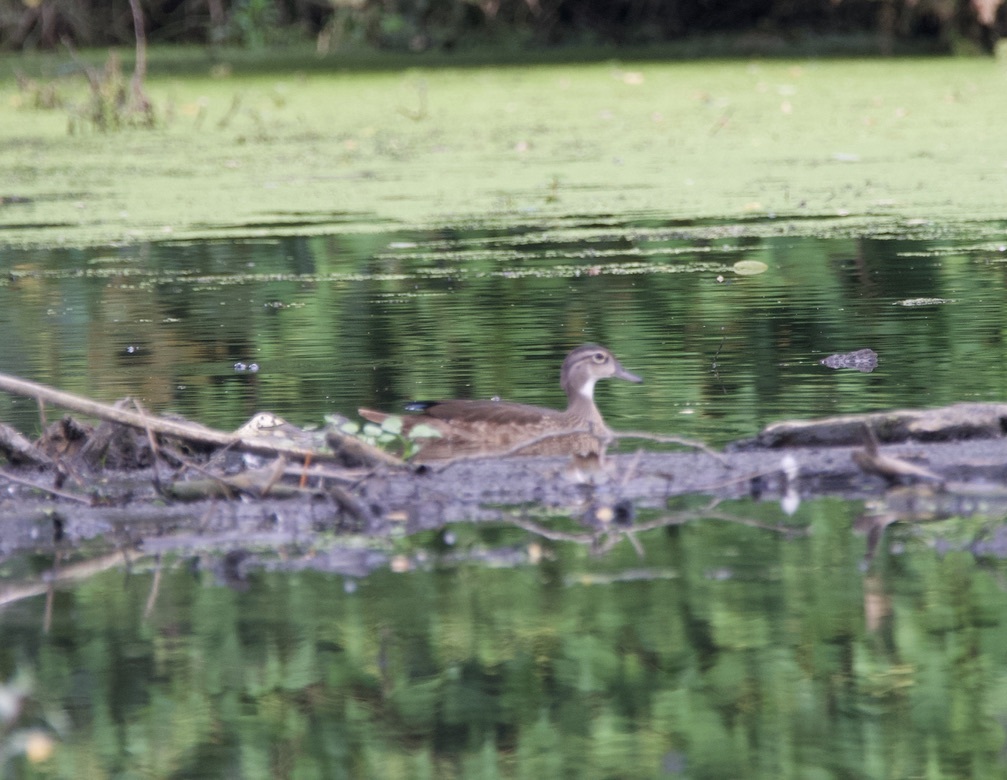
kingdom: Animalia
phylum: Chordata
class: Aves
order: Anseriformes
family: Anatidae
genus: Aix
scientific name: Aix sponsa
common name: Wood duck
